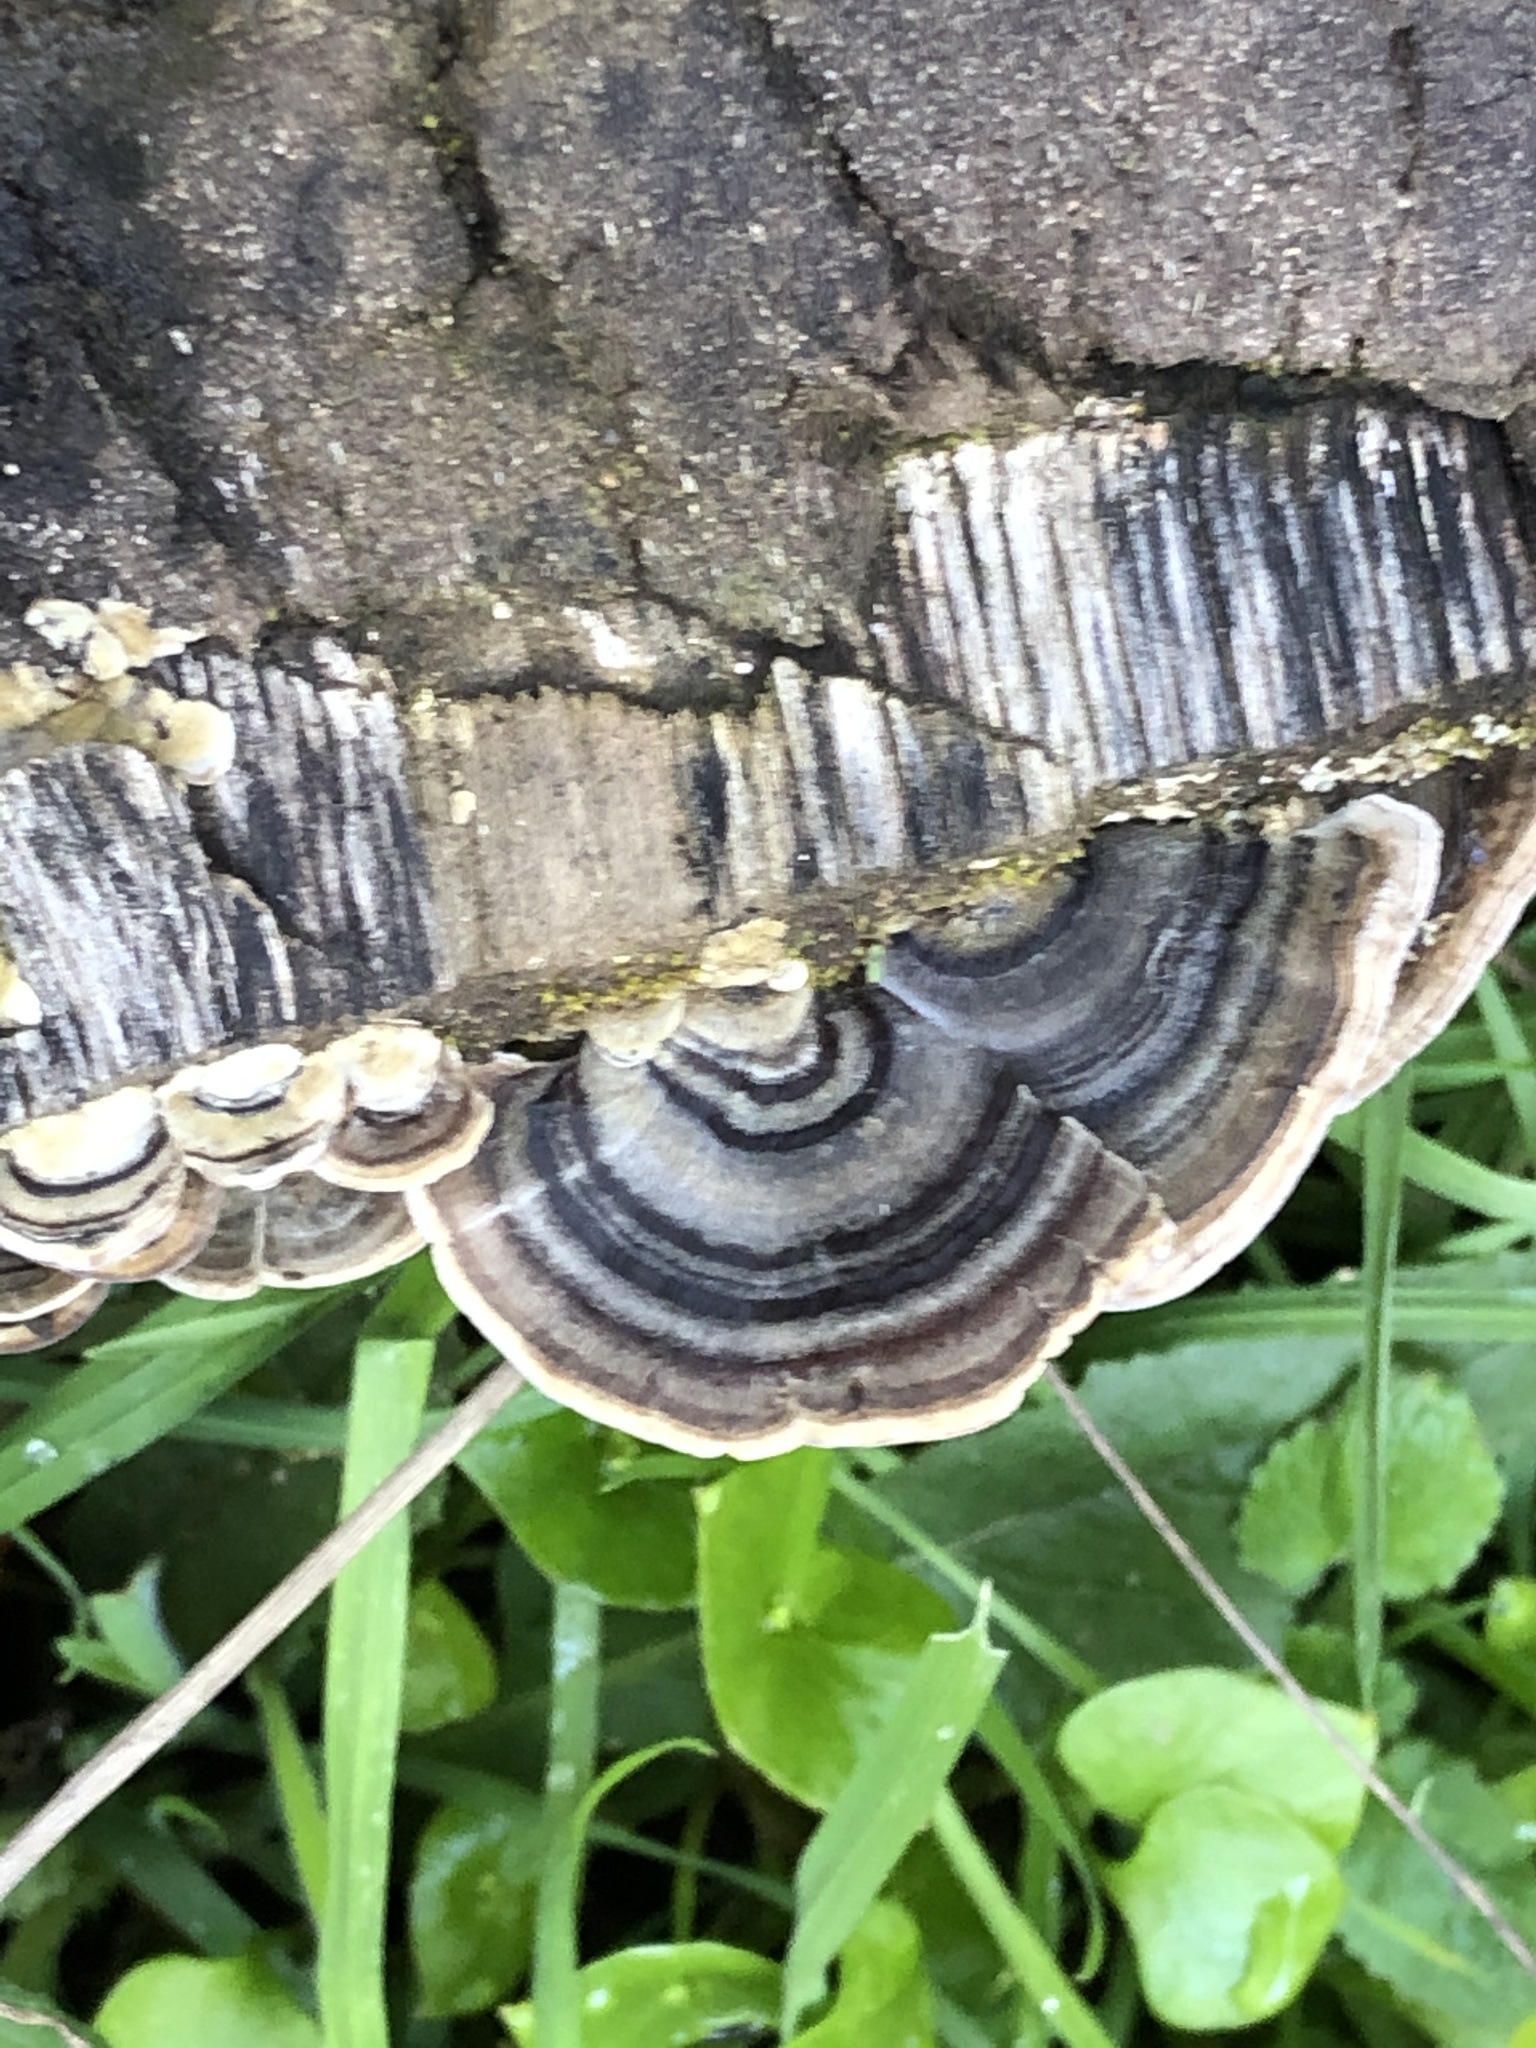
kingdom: Fungi
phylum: Basidiomycota
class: Agaricomycetes
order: Polyporales
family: Polyporaceae
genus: Trametes
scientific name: Trametes versicolor
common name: Turkeytail
